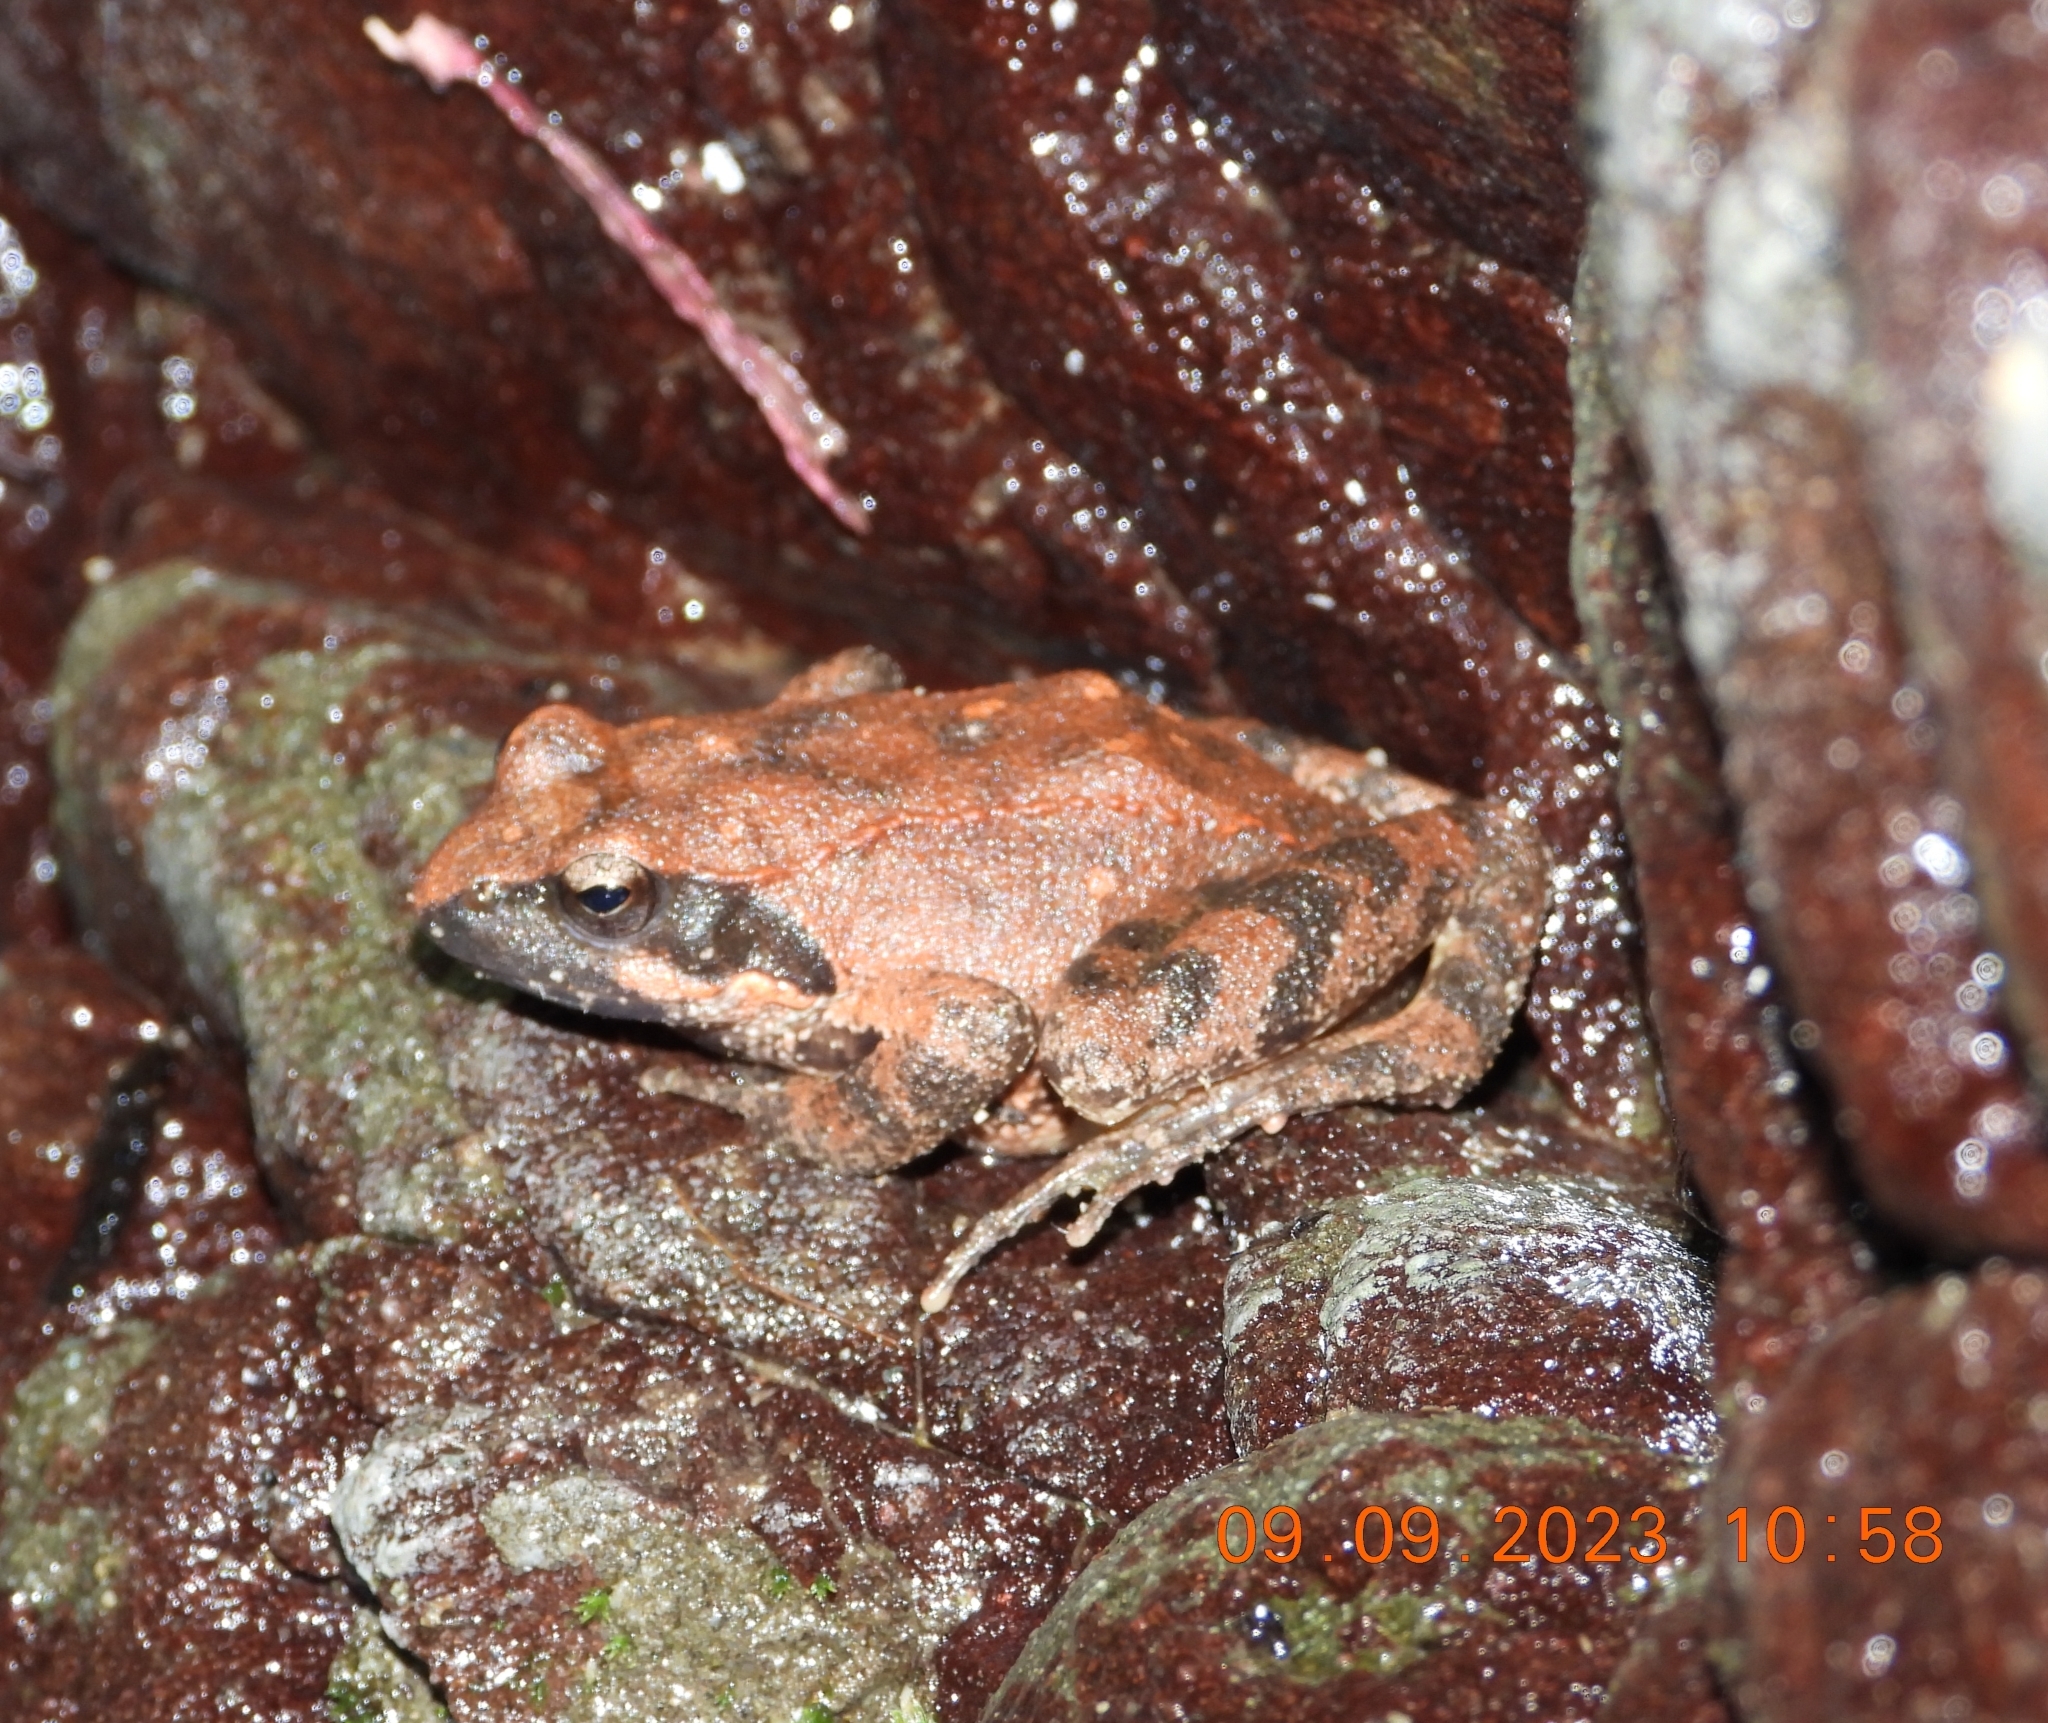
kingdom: Animalia
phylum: Chordata
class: Amphibia
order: Anura
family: Ranidae
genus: Rana
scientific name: Rana italica
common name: Italian stream frog
